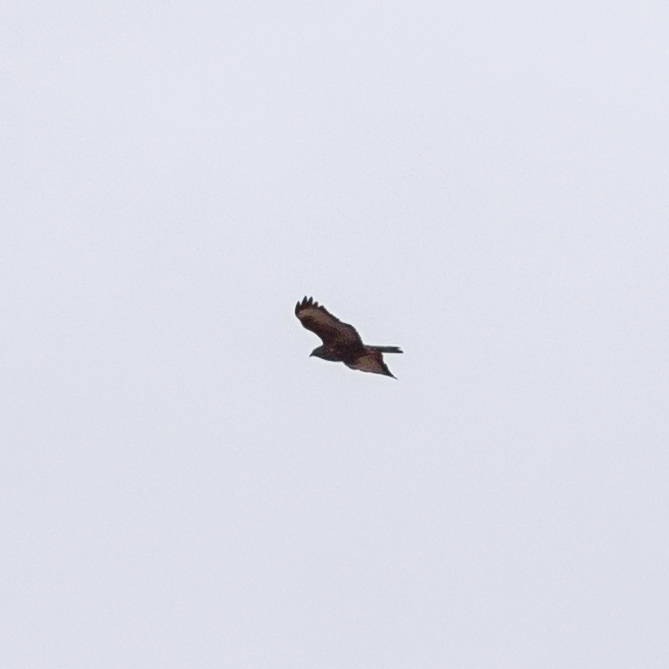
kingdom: Animalia
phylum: Chordata
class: Aves
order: Accipitriformes
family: Accipitridae
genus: Buteo
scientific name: Buteo buteo
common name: Common buzzard
